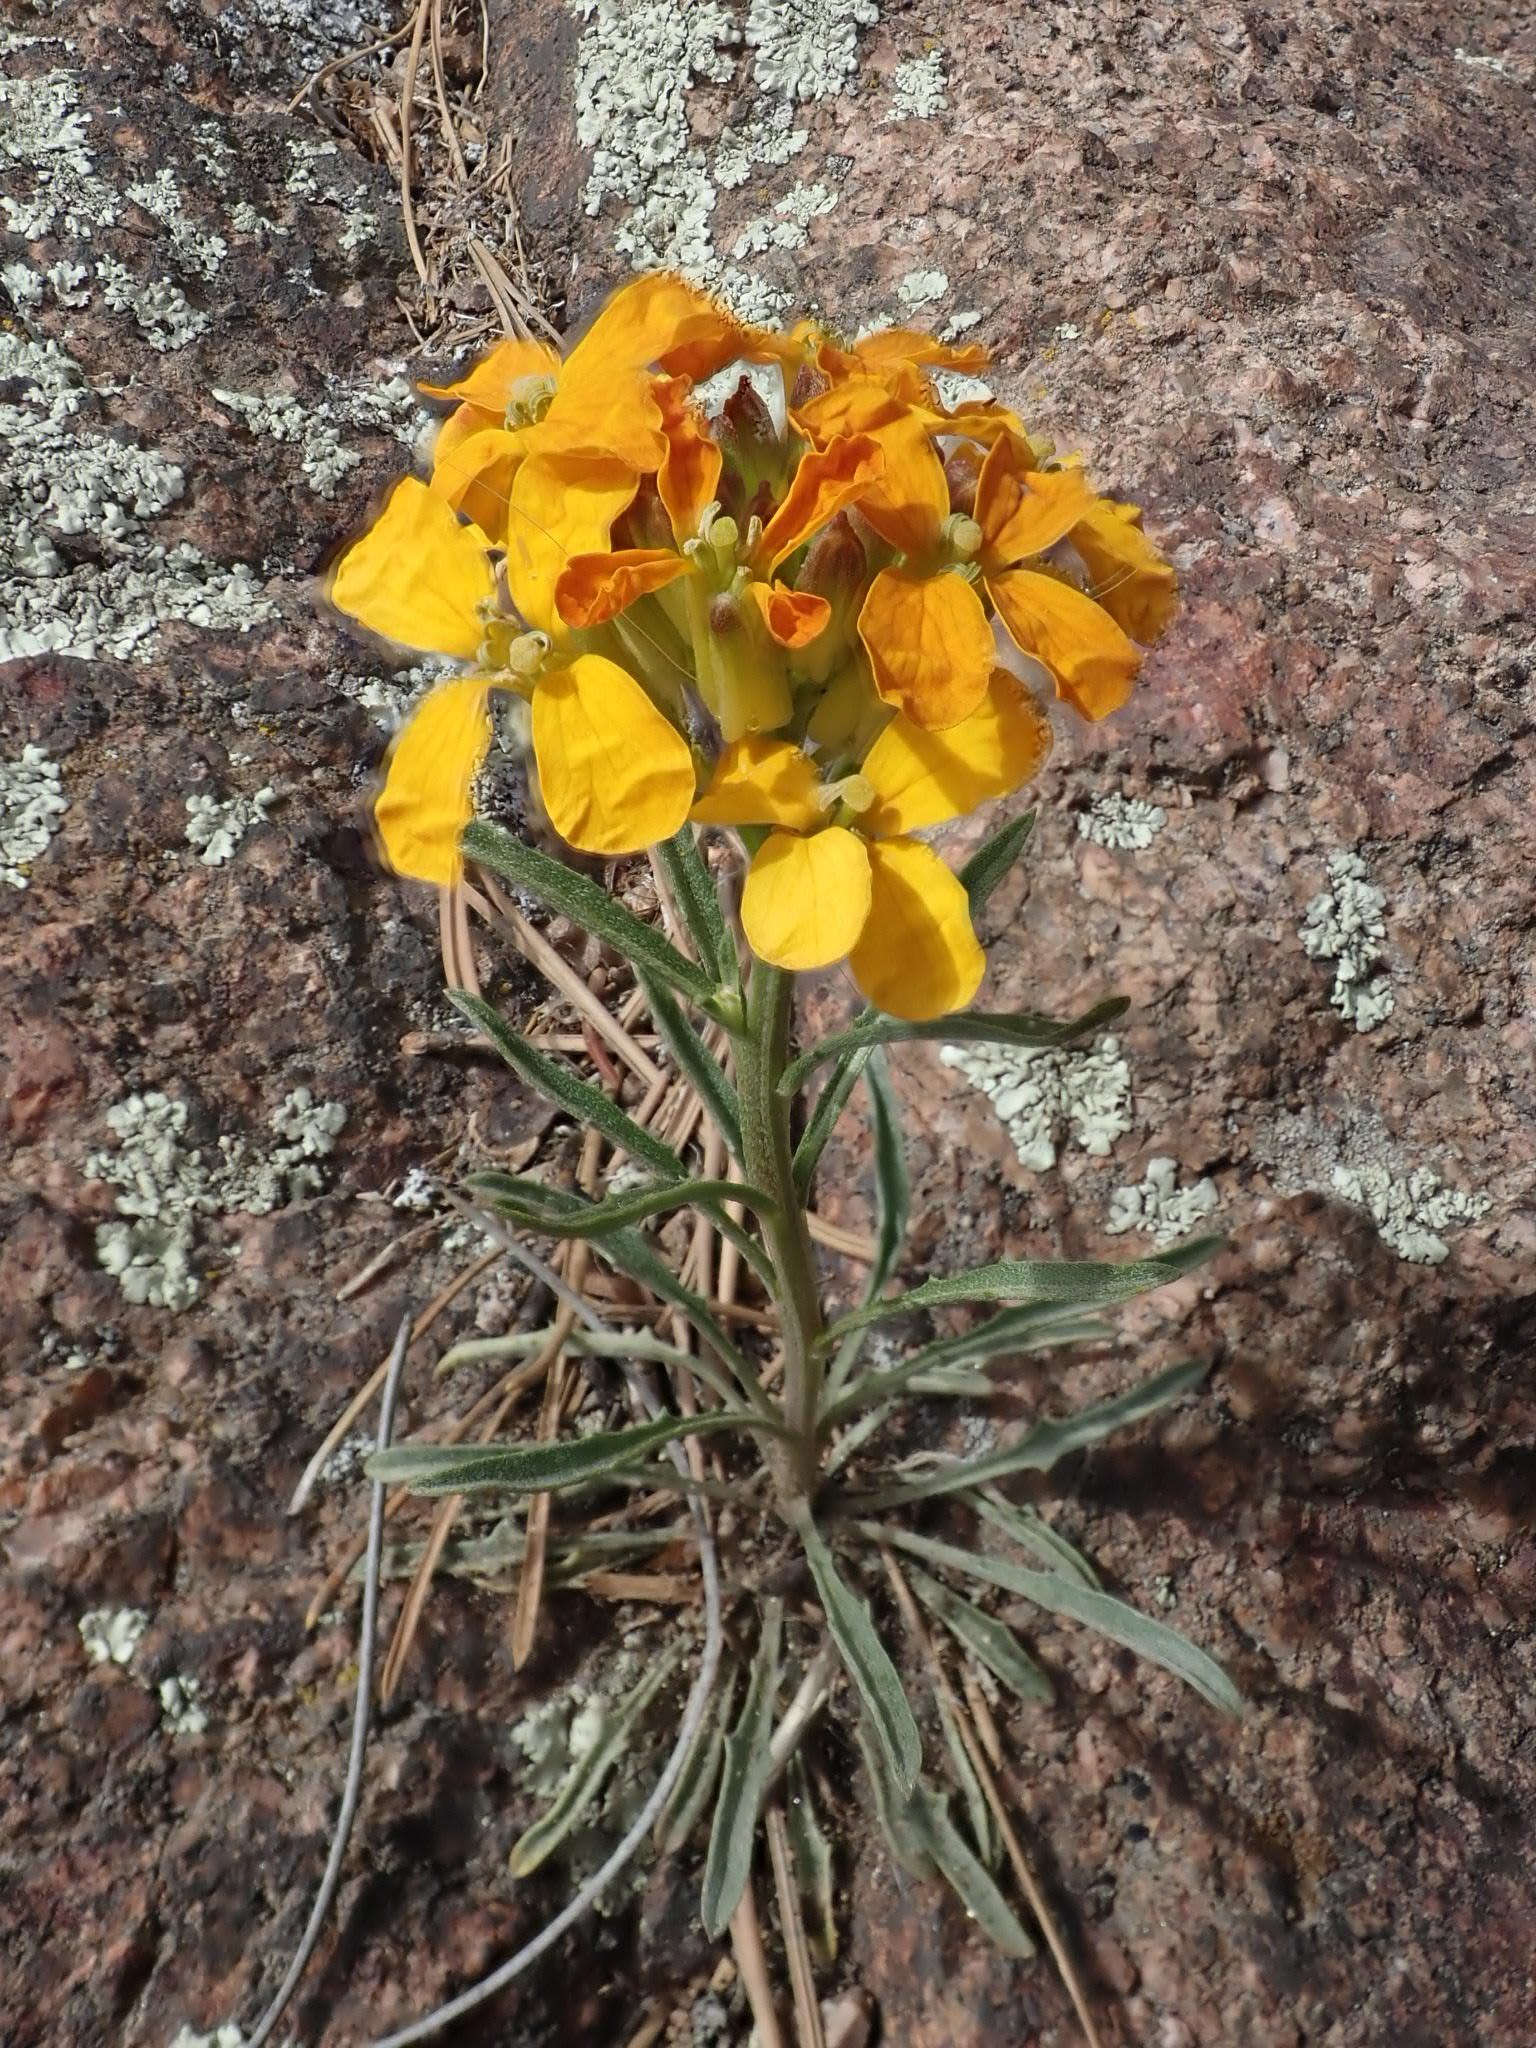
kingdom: Plantae
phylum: Tracheophyta
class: Magnoliopsida
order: Brassicales
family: Brassicaceae
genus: Erysimum
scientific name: Erysimum capitatum
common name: Western wallflower
